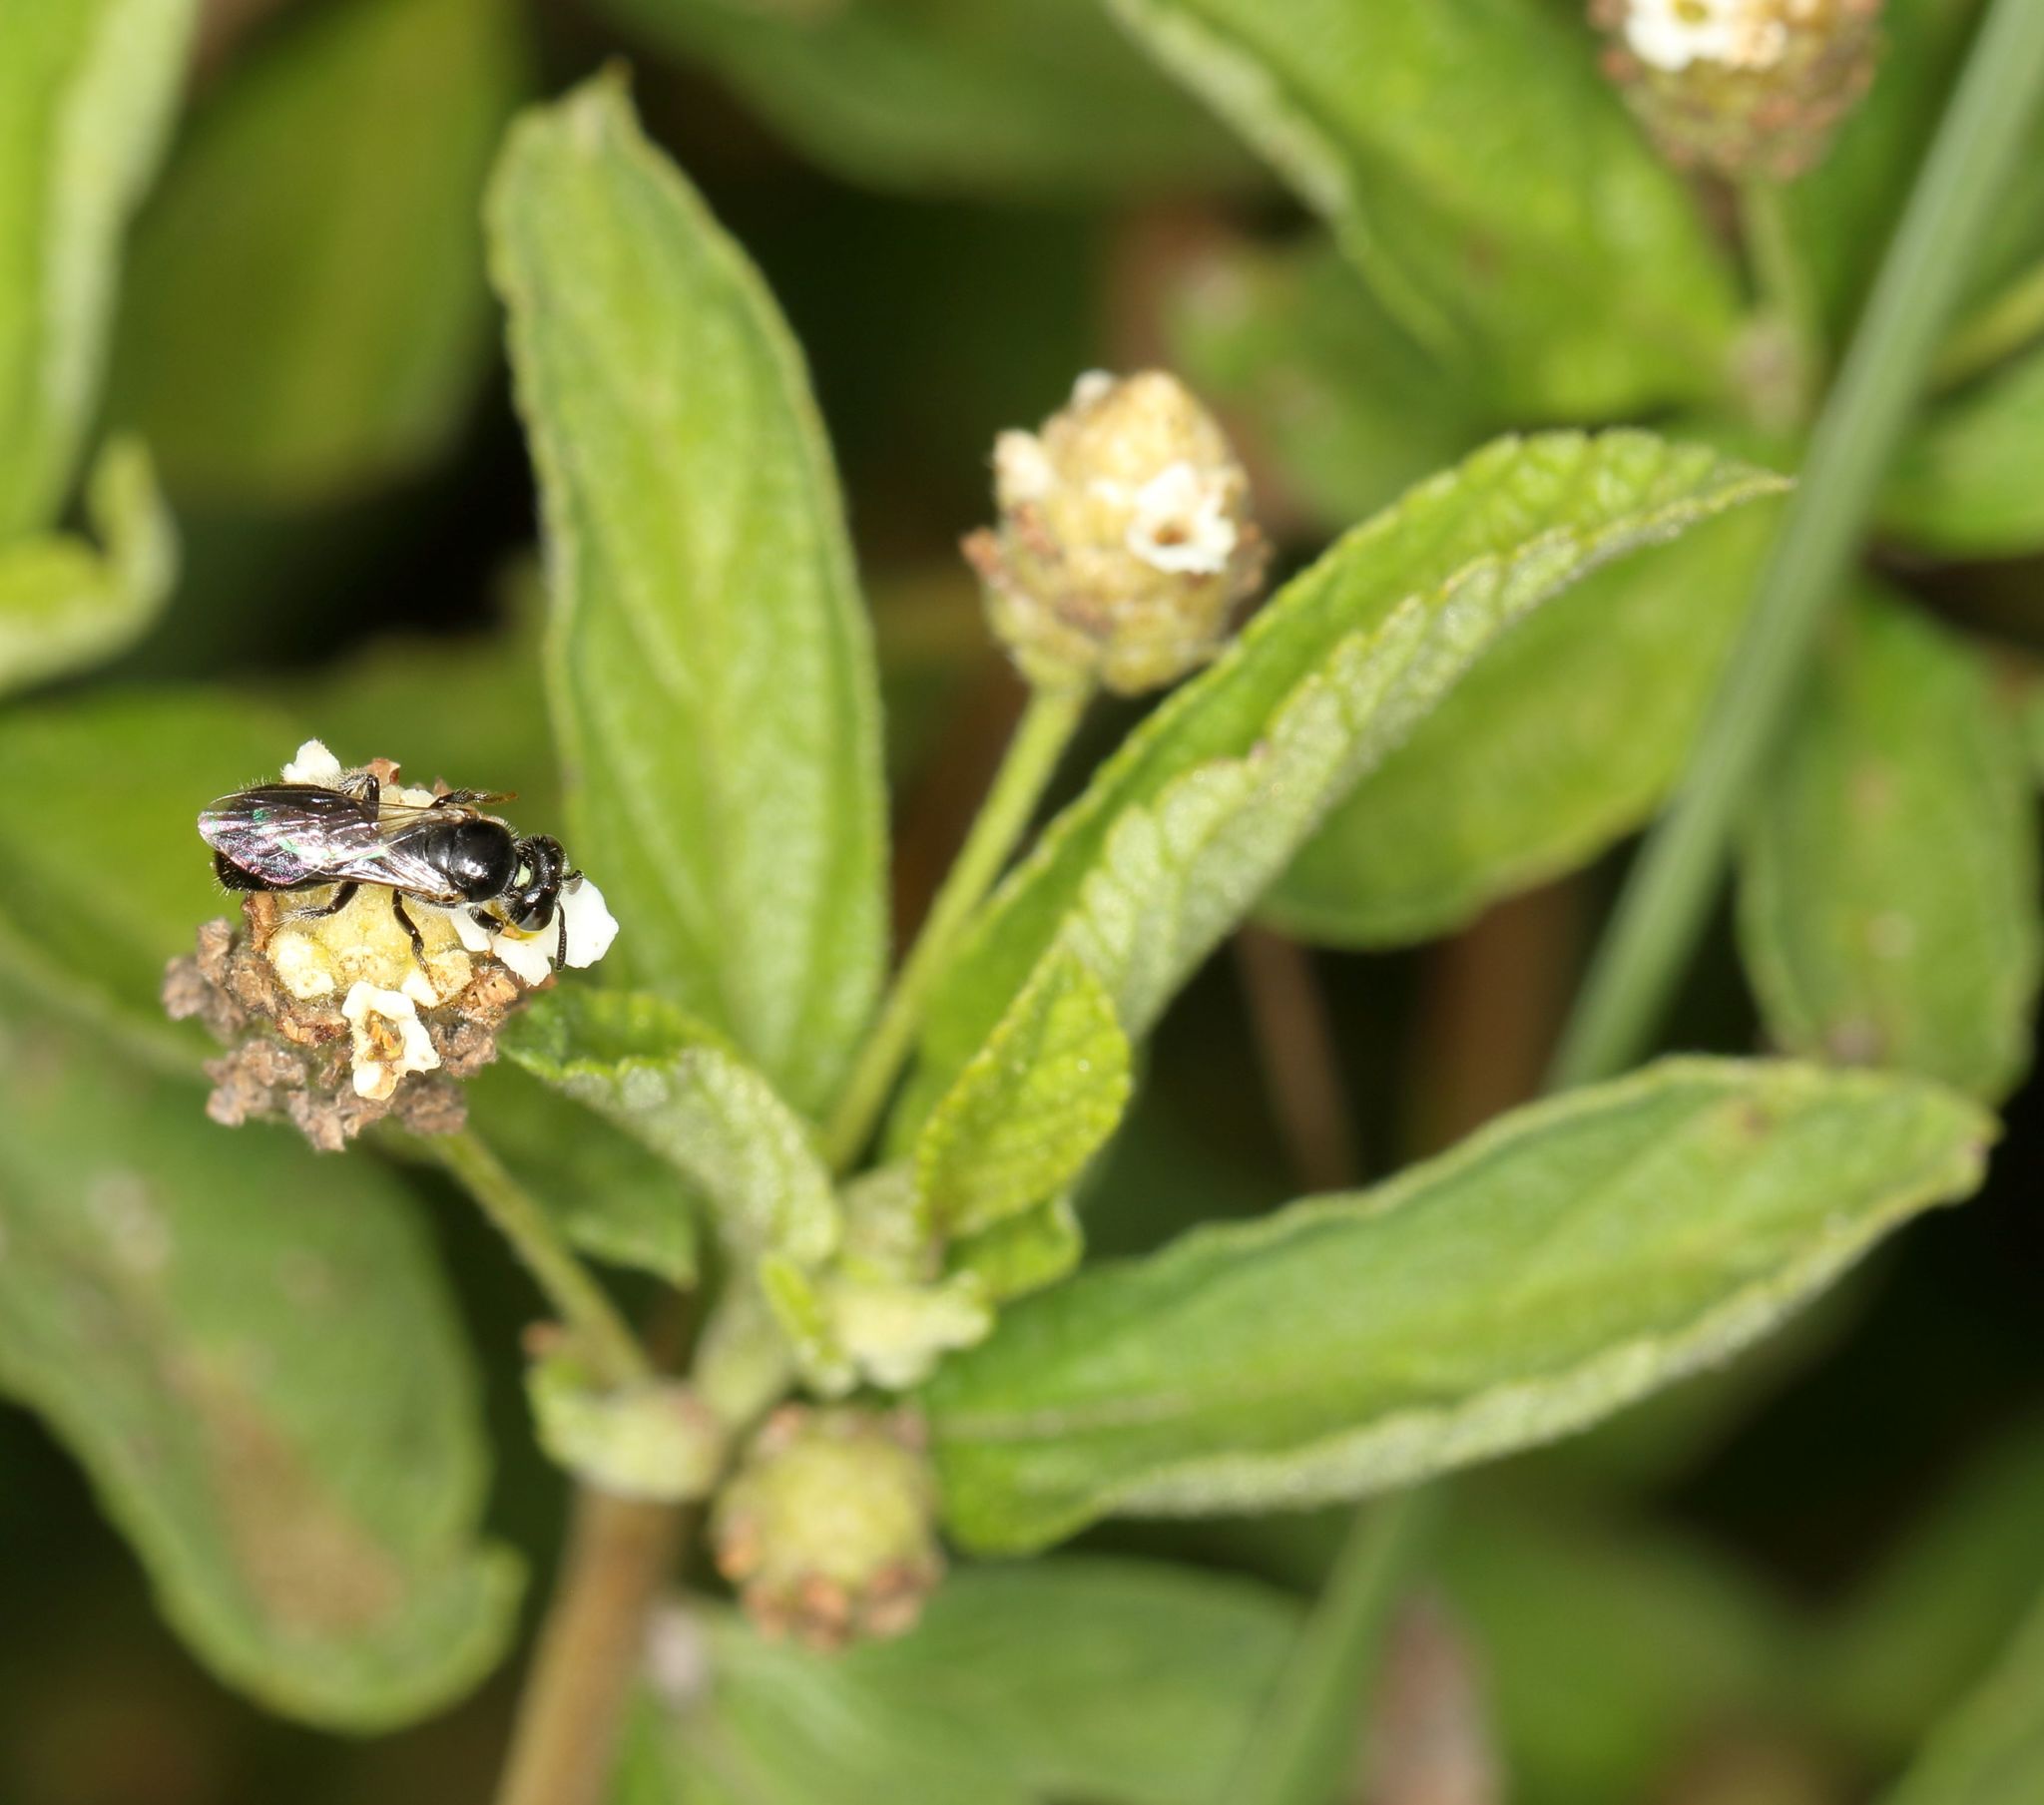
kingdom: Plantae
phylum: Tracheophyta
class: Magnoliopsida
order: Lamiales
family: Verbenaceae
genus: Lippia
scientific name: Lippia javanica
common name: Lemonbush
